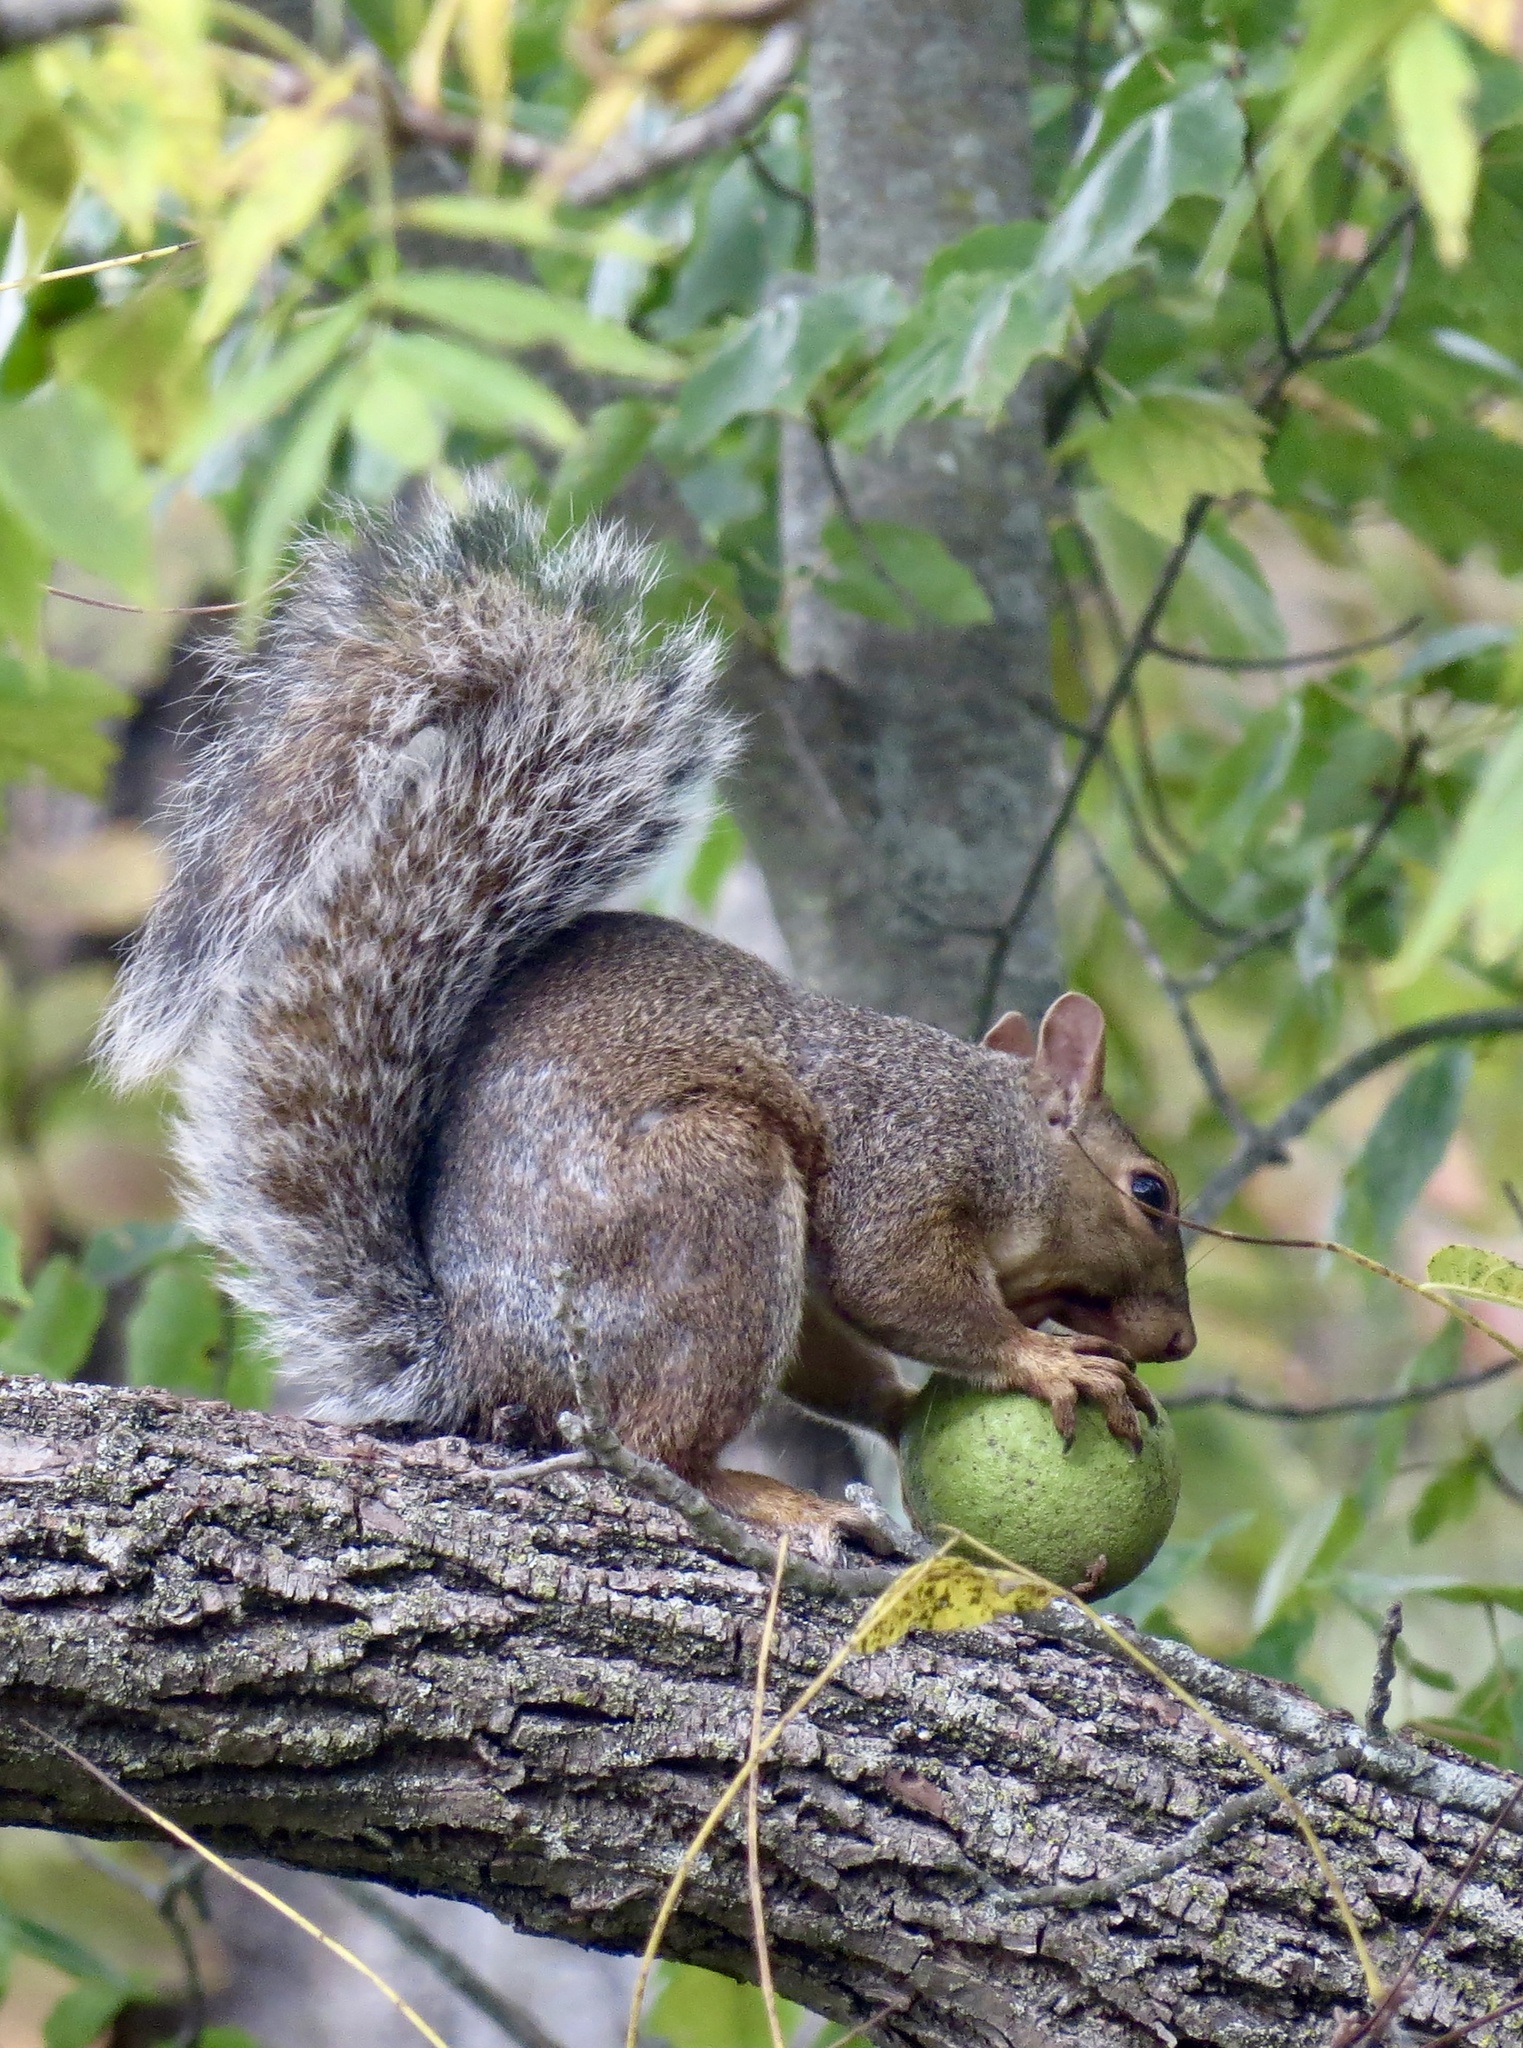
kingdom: Animalia
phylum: Chordata
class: Mammalia
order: Rodentia
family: Sciuridae
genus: Sciurus
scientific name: Sciurus carolinensis
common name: Eastern gray squirrel
